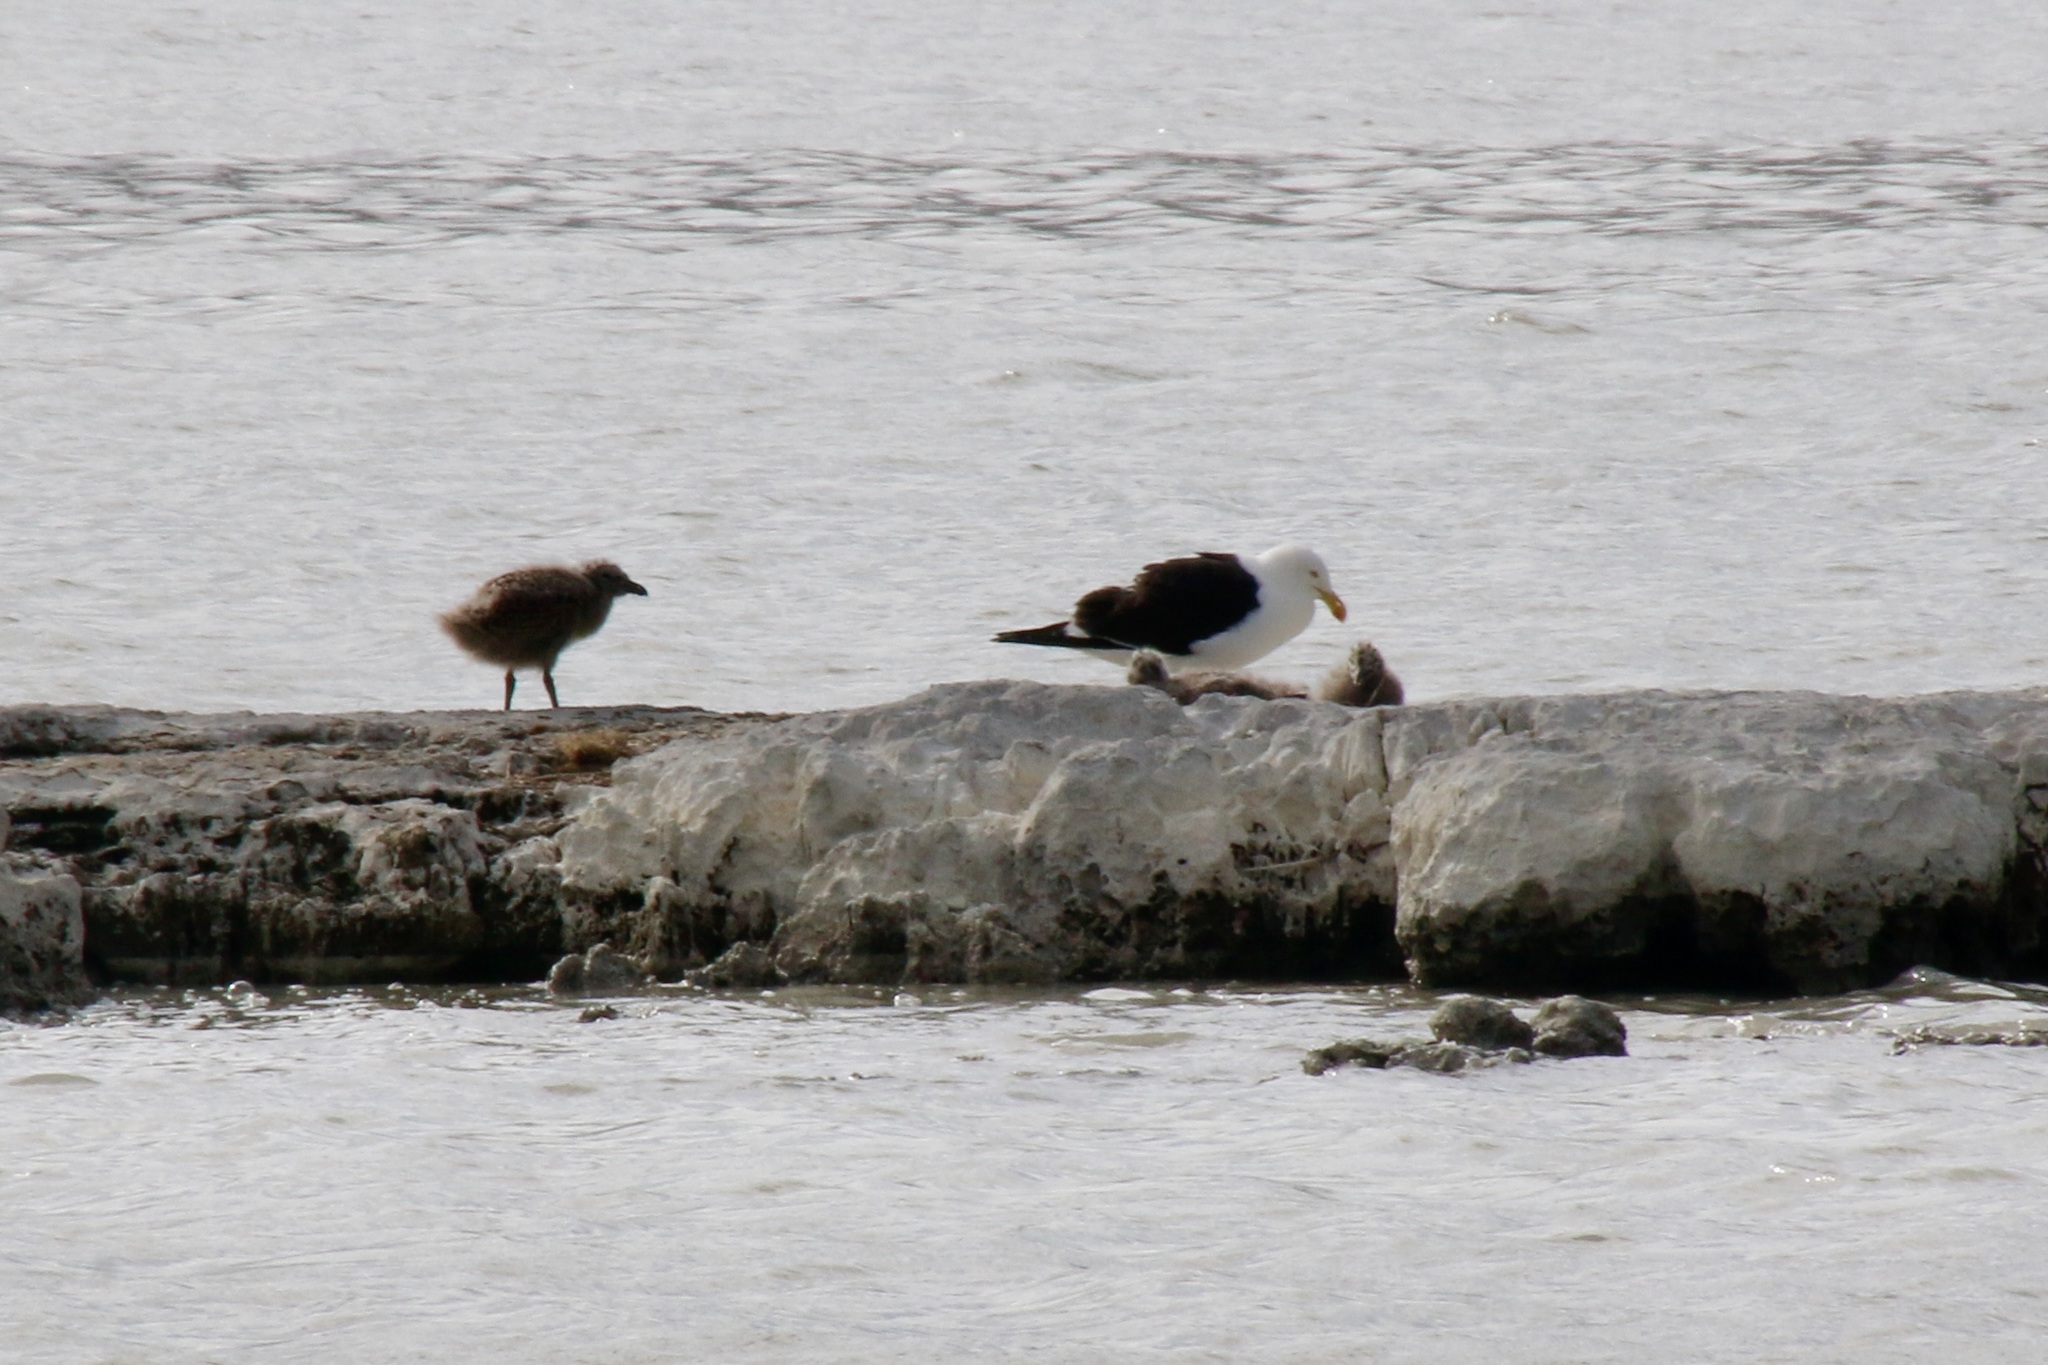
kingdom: Animalia
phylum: Chordata
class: Aves
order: Charadriiformes
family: Laridae
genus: Larus
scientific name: Larus dominicanus
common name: Kelp gull
